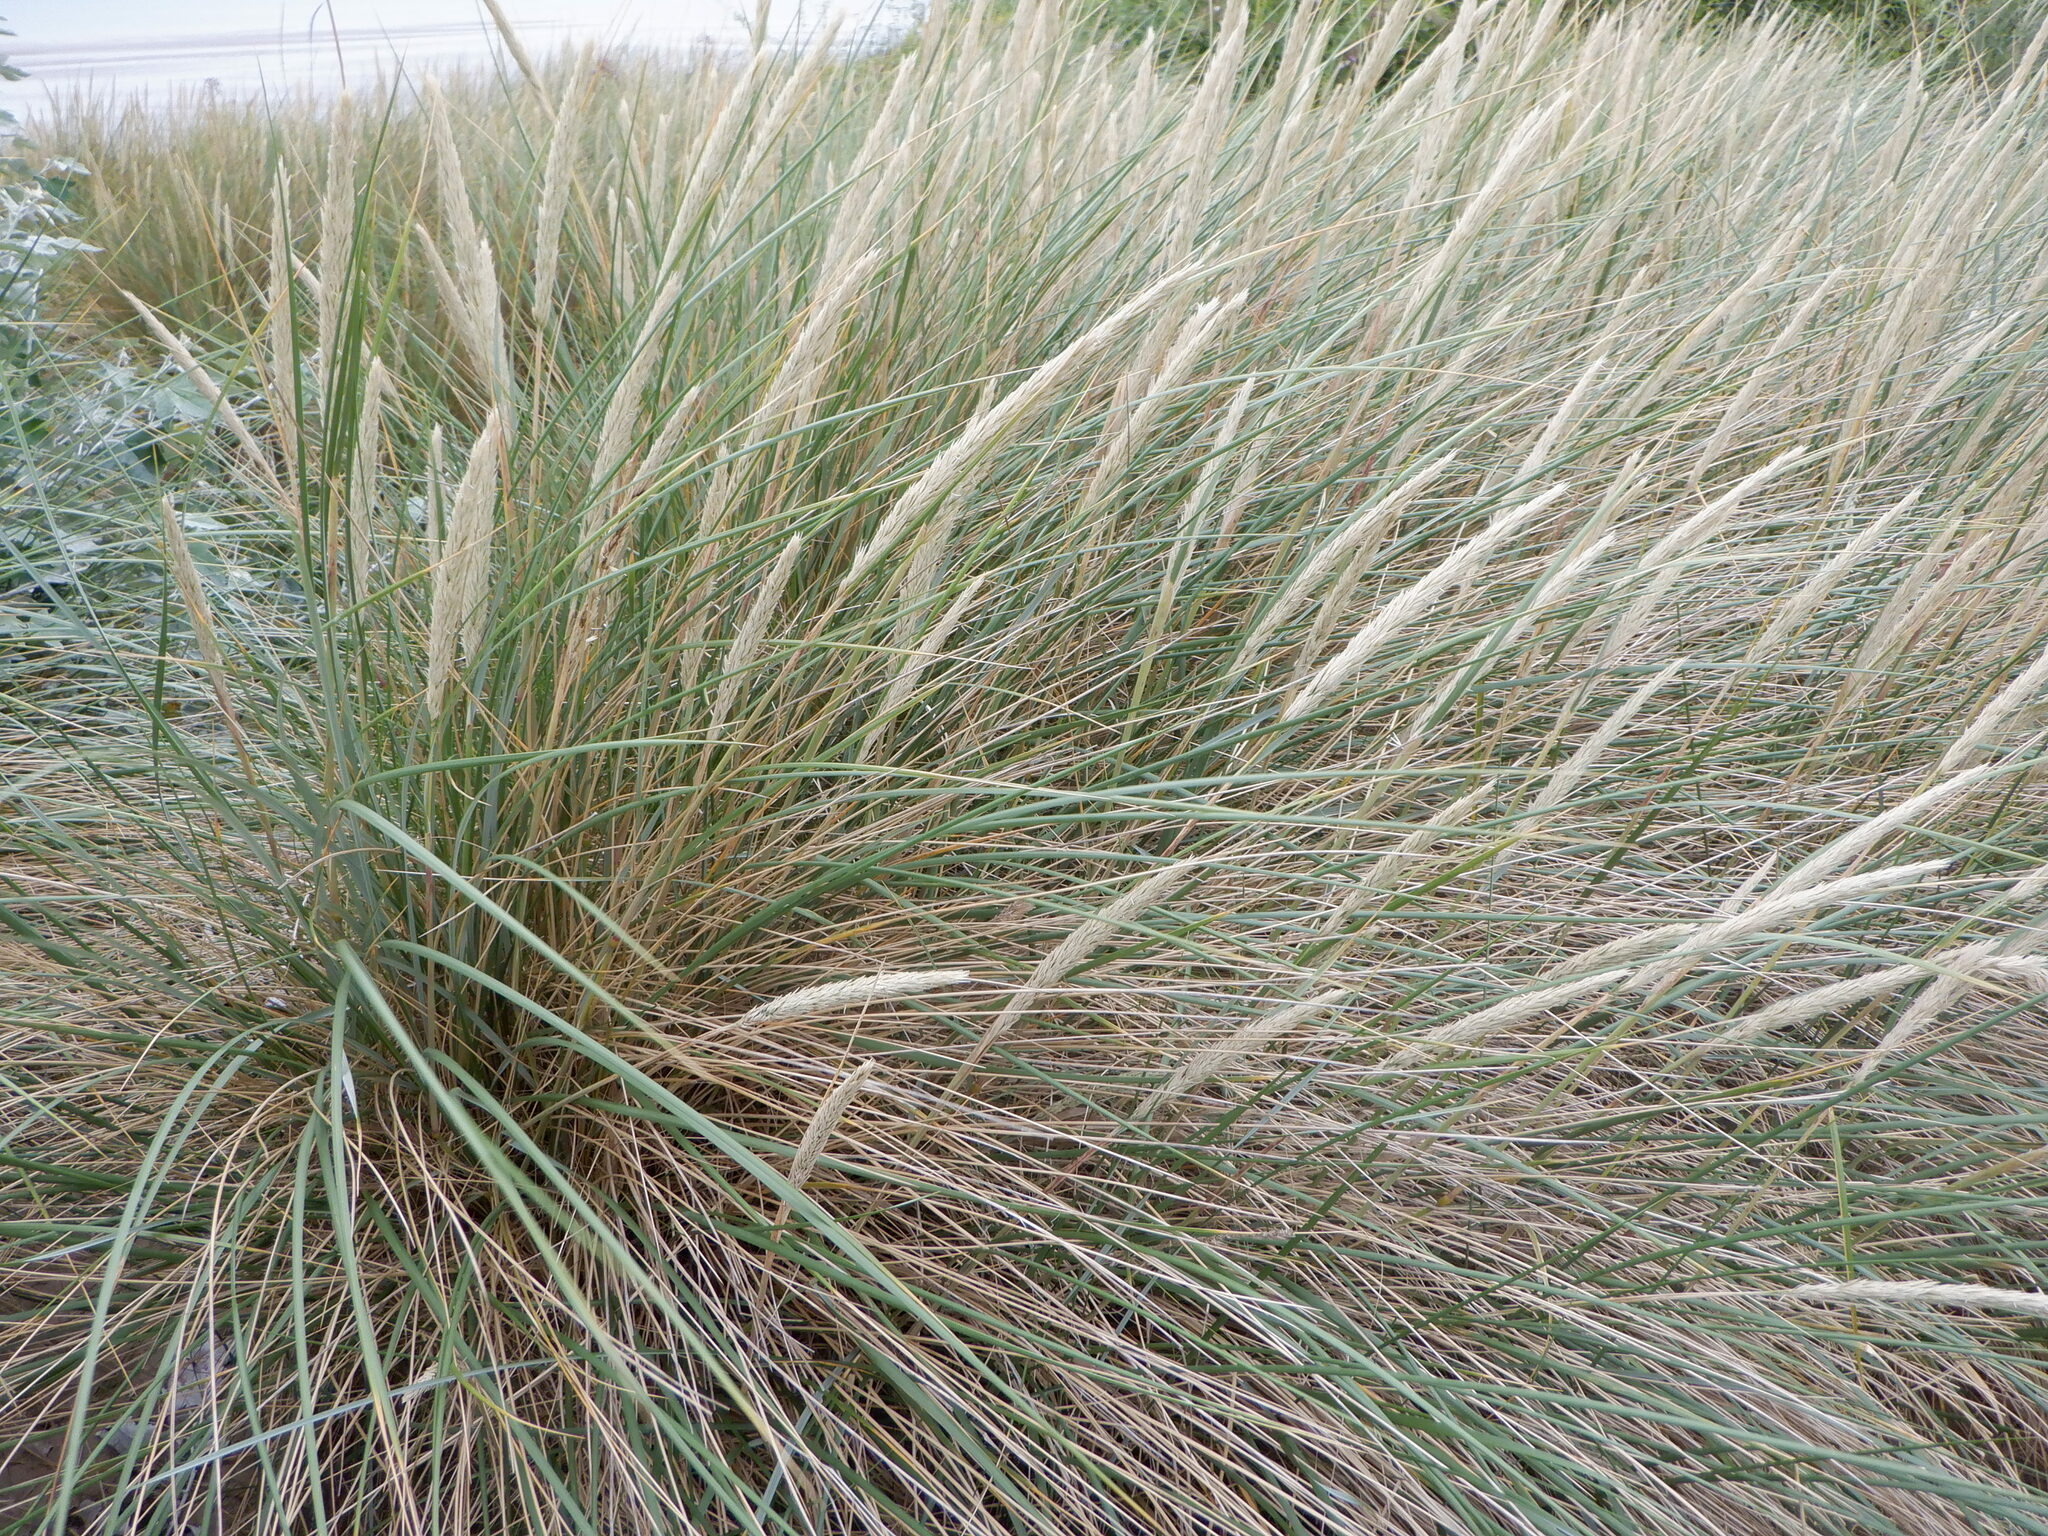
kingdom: Plantae
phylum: Tracheophyta
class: Liliopsida
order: Poales
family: Poaceae
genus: Calamagrostis
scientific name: Calamagrostis arenaria
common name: European beachgrass
